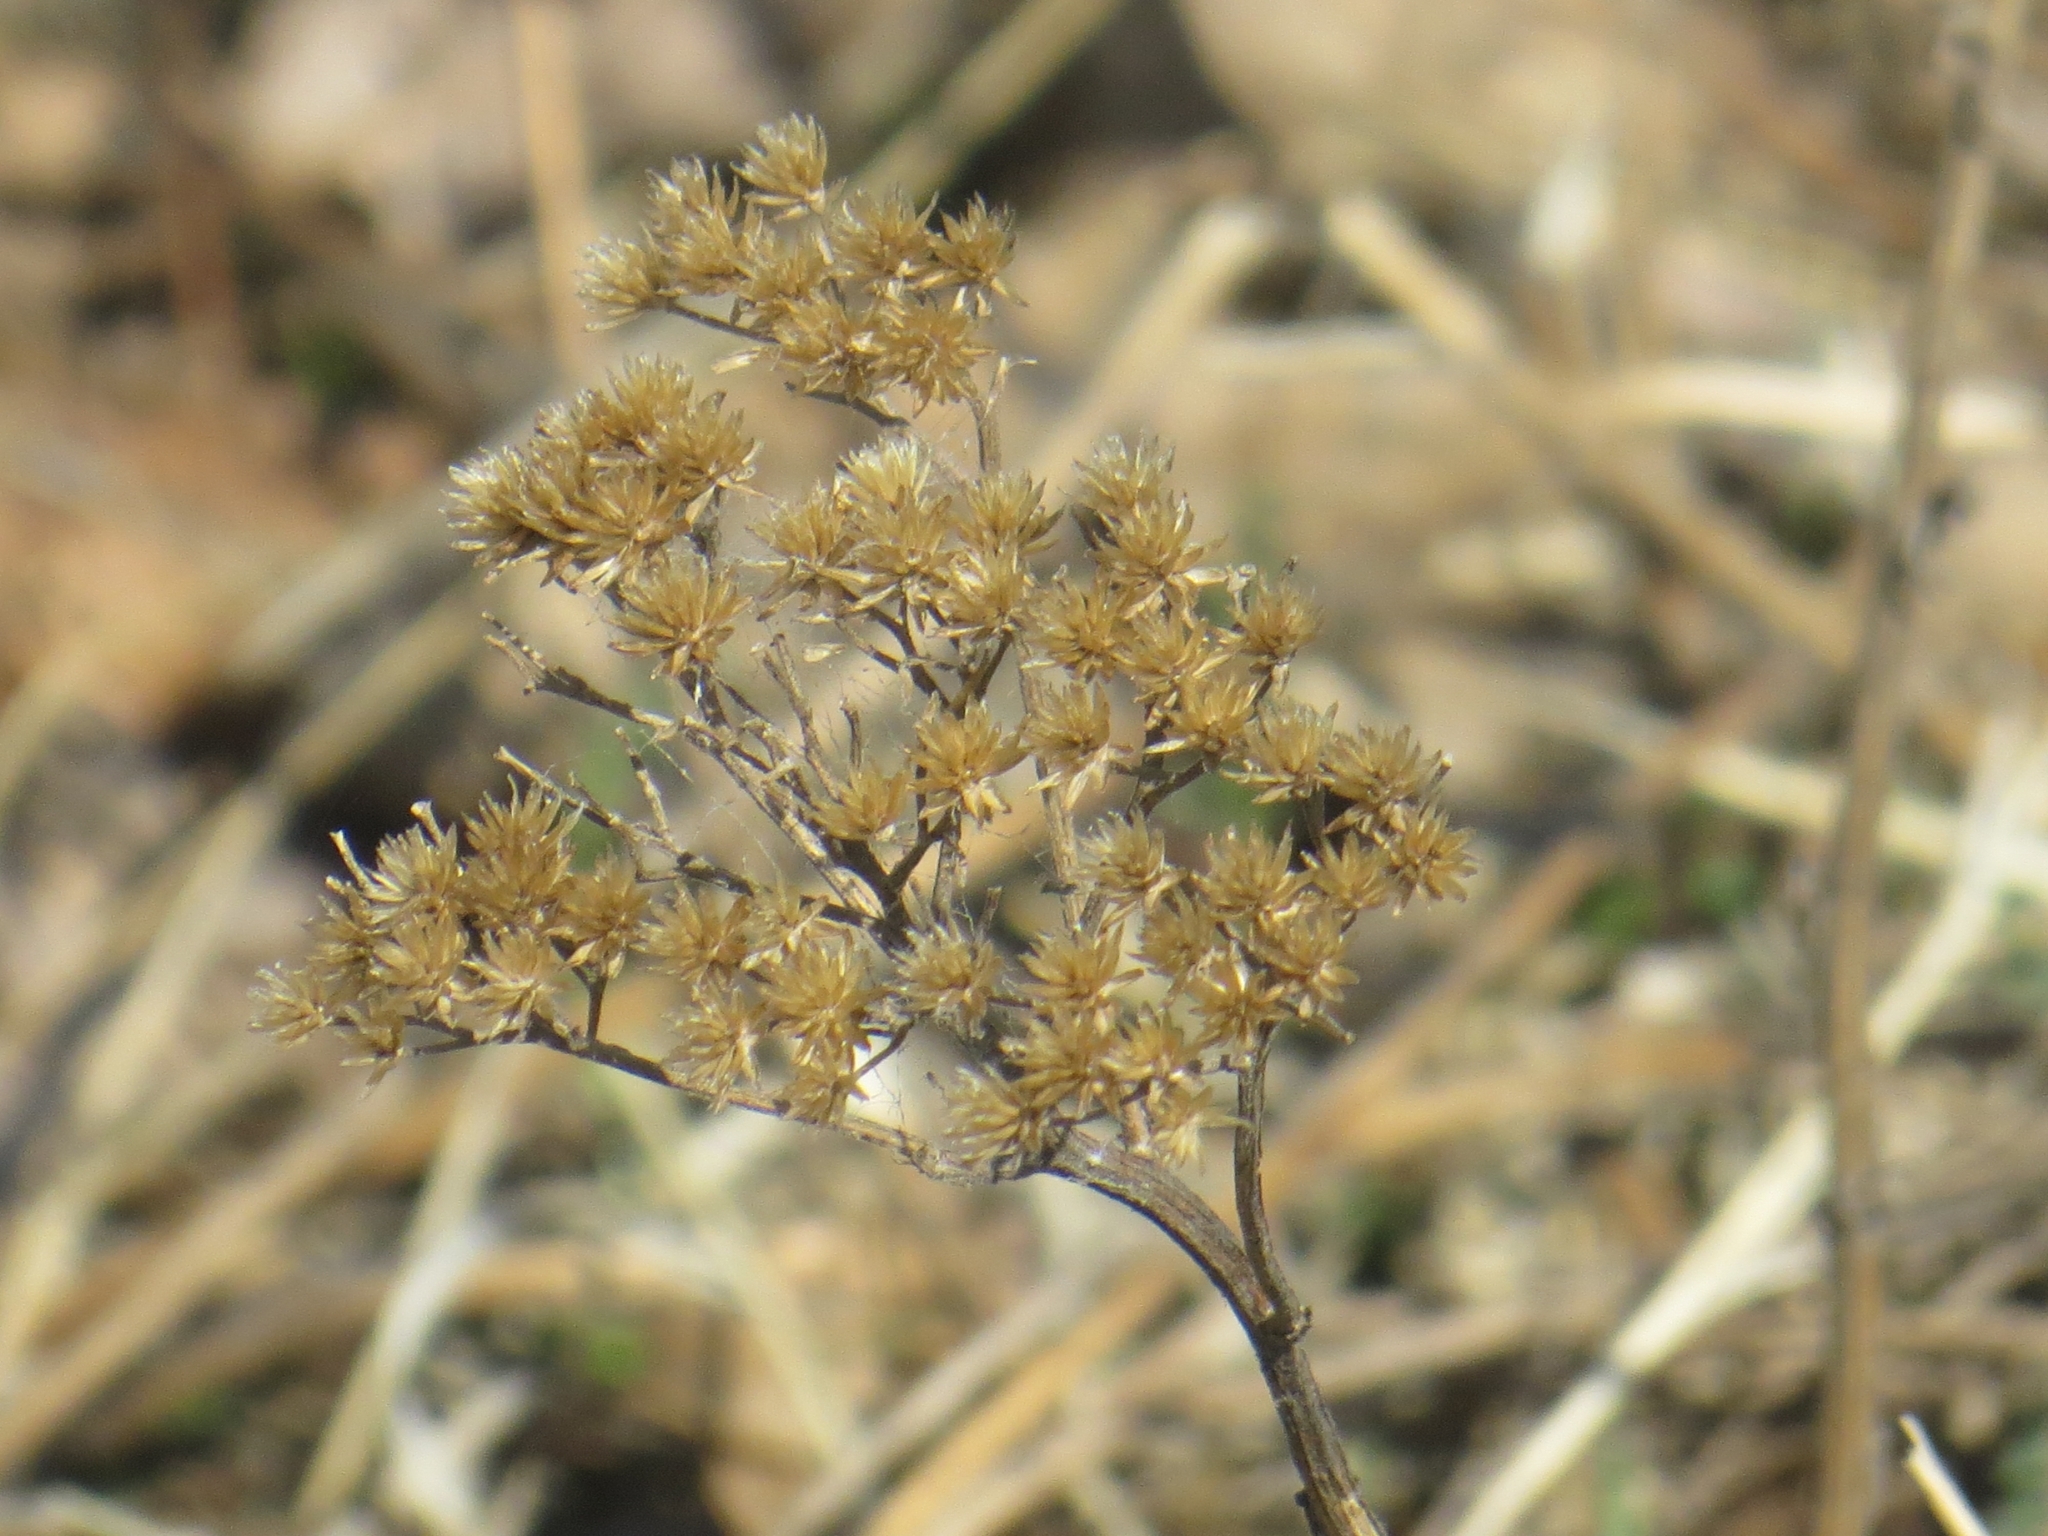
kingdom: Plantae
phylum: Tracheophyta
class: Magnoliopsida
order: Asterales
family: Asteraceae
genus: Achillea
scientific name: Achillea millefolium
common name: Yarrow
